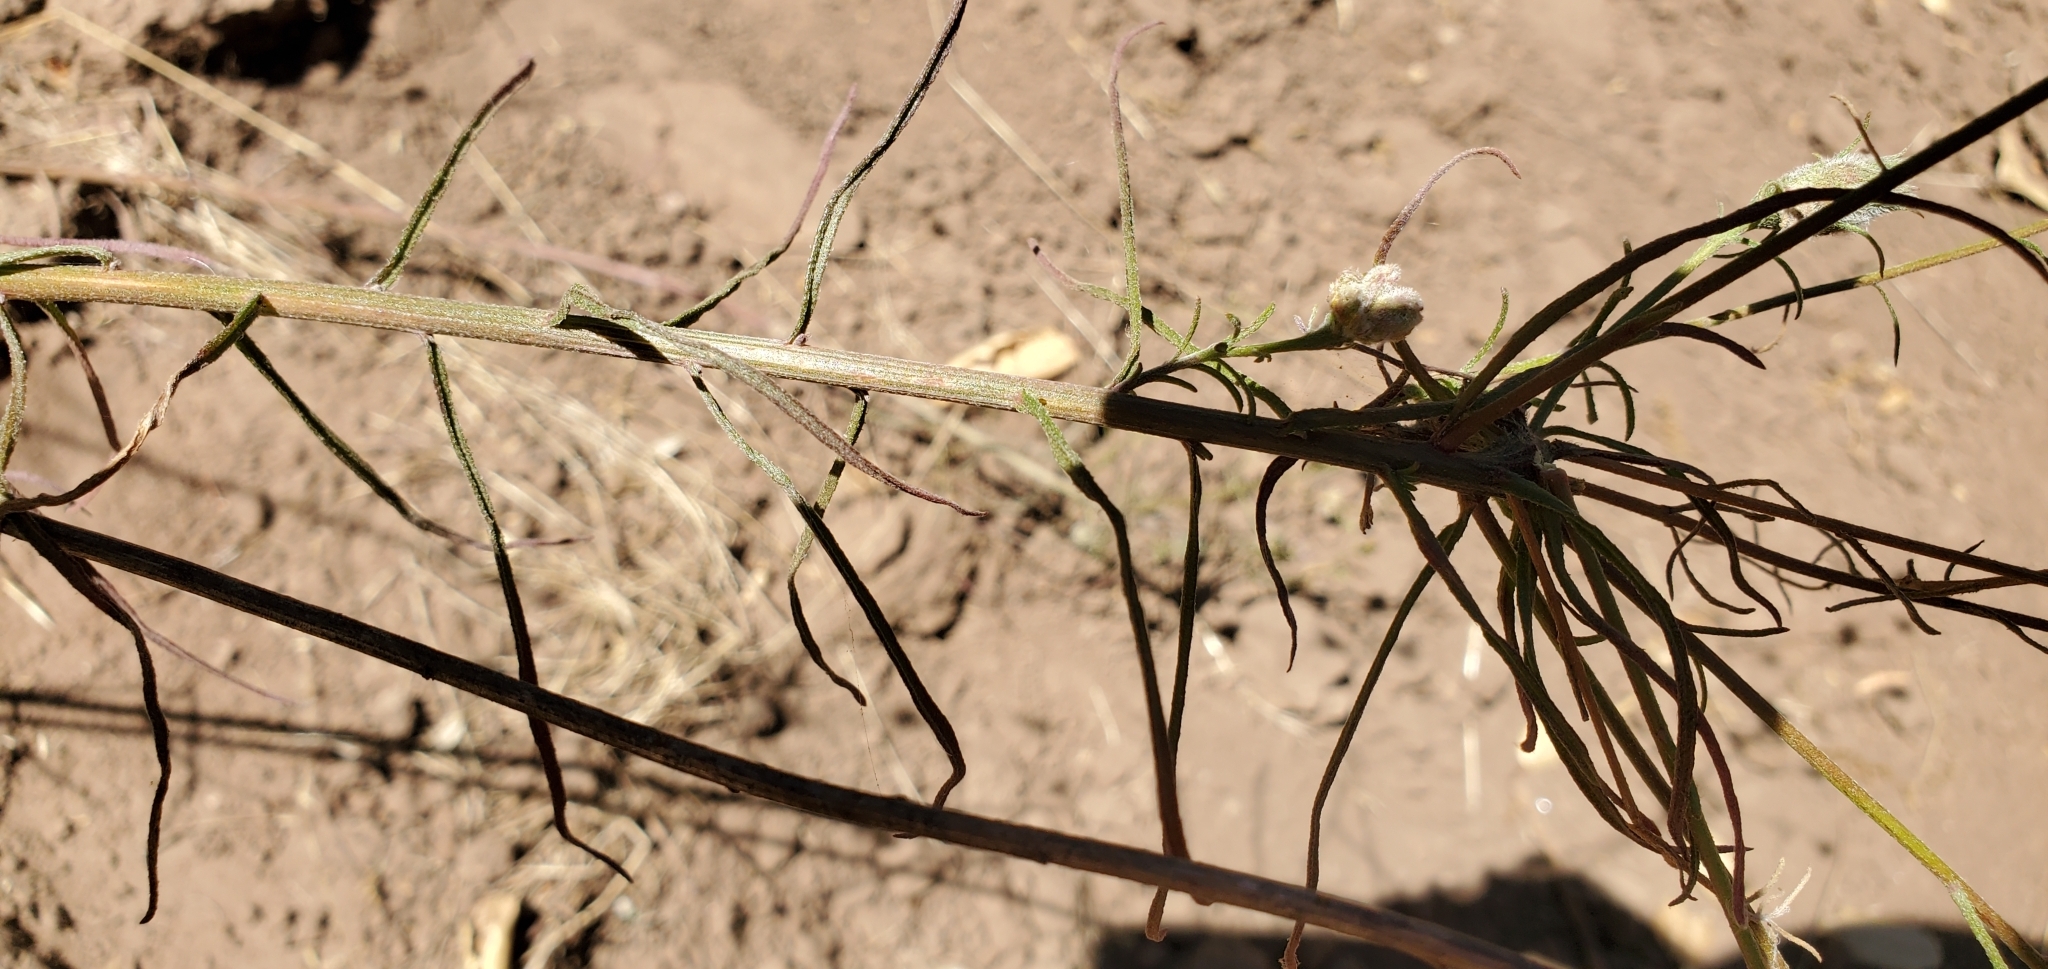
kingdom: Plantae
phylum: Tracheophyta
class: Magnoliopsida
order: Asterales
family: Asteraceae
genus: Erigeron
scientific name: Erigeron foliosus
